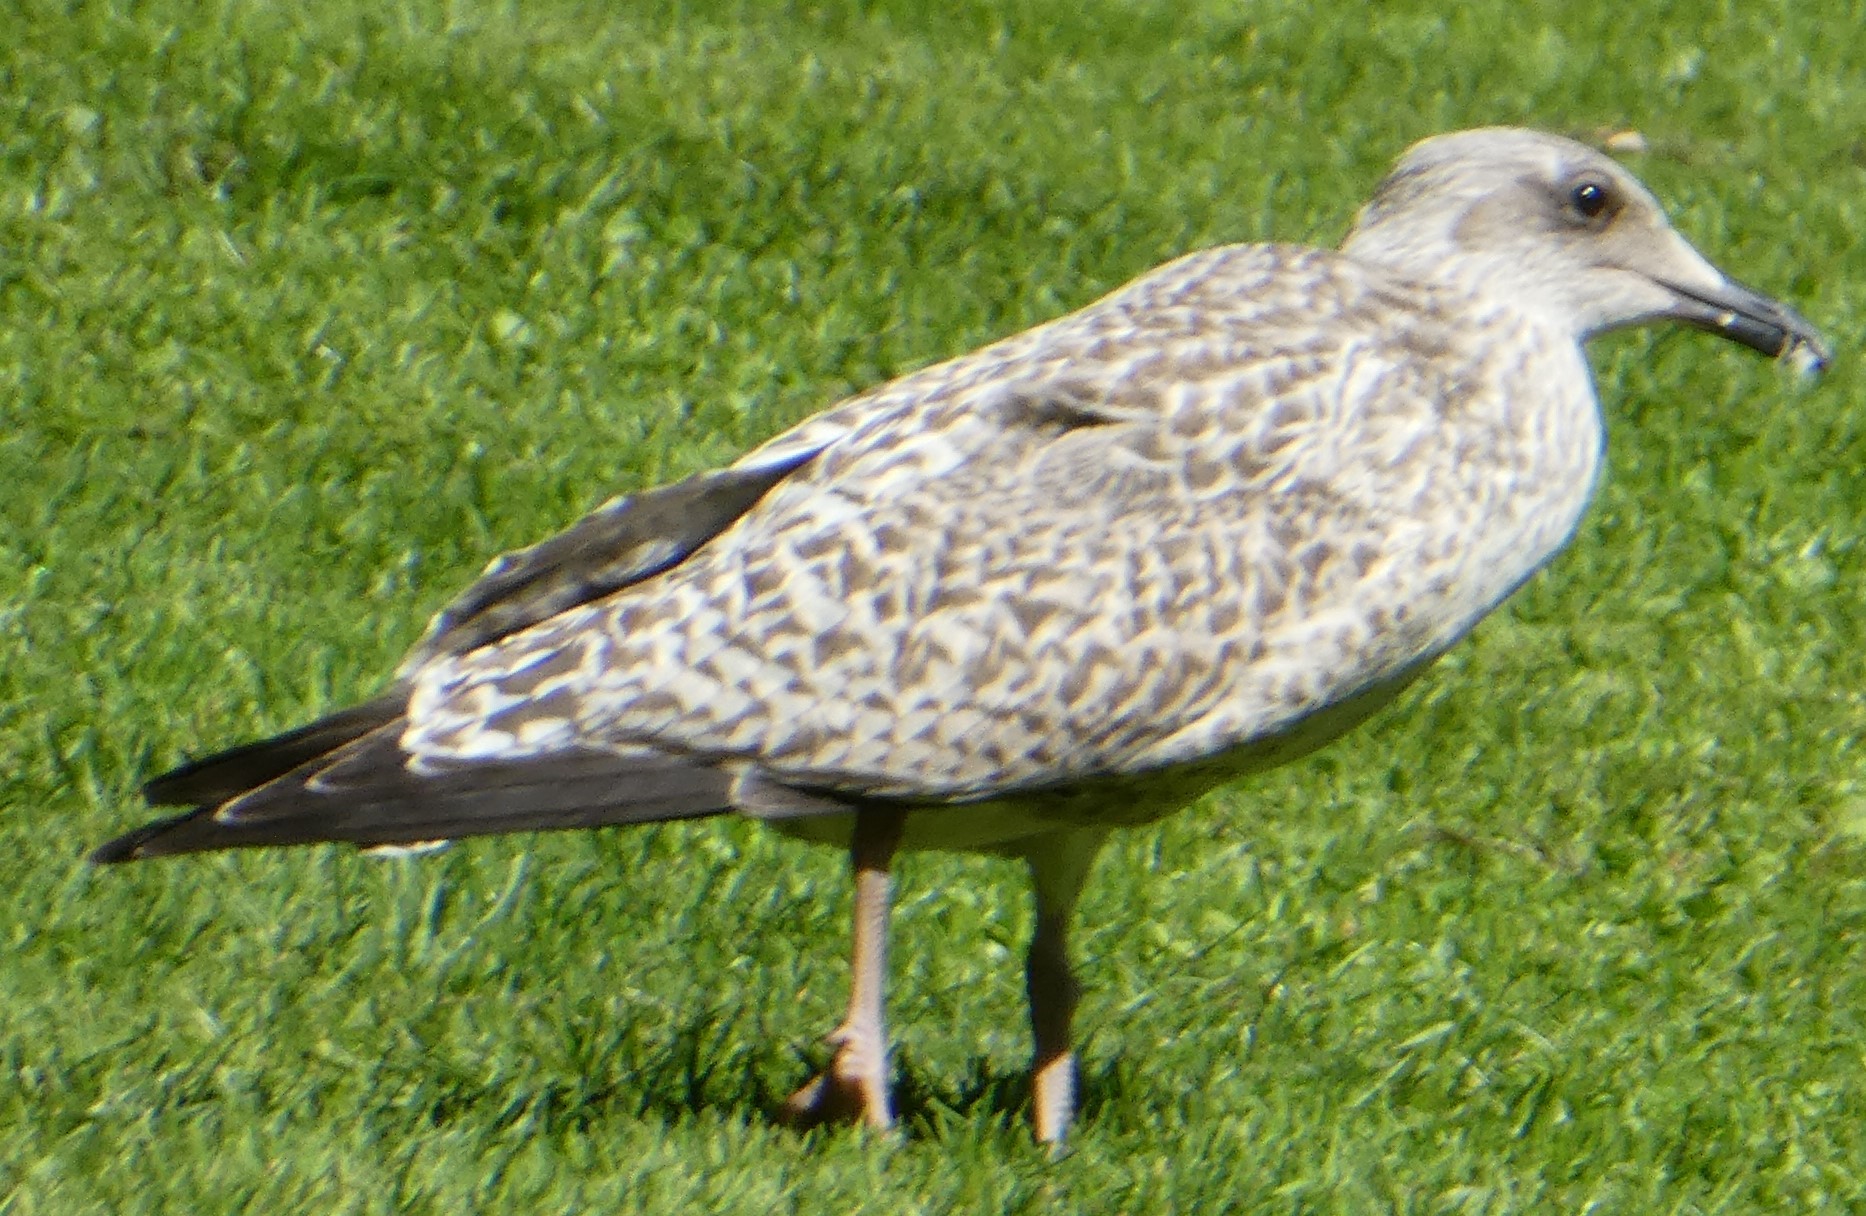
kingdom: Animalia
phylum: Chordata
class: Aves
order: Charadriiformes
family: Laridae
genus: Larus
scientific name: Larus argentatus
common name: Herring gull
